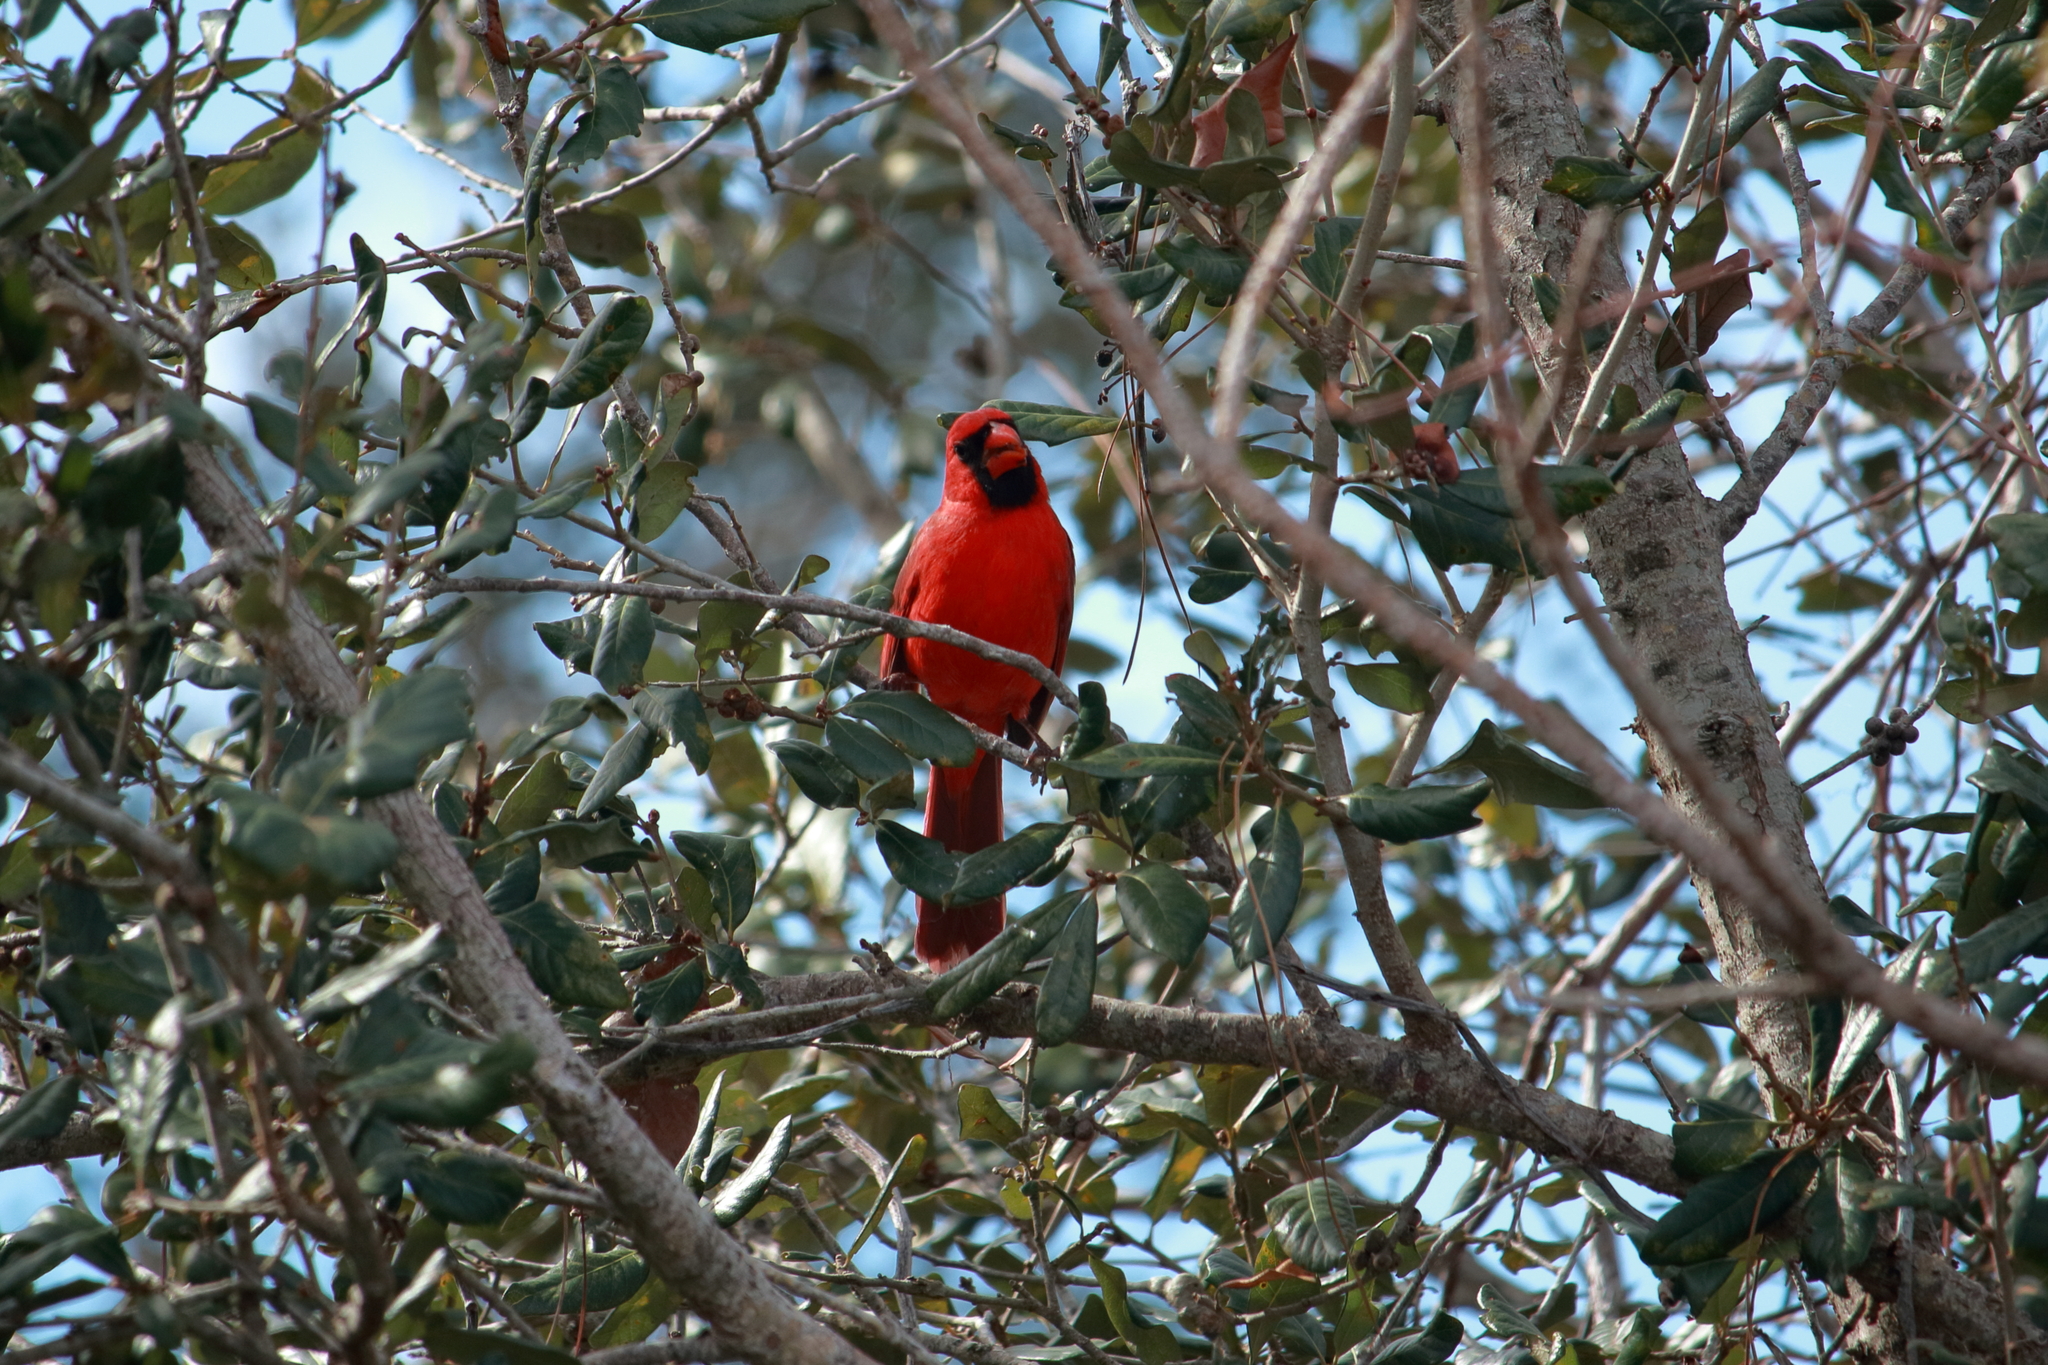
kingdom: Animalia
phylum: Chordata
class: Aves
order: Passeriformes
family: Cardinalidae
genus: Cardinalis
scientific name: Cardinalis cardinalis
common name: Northern cardinal
